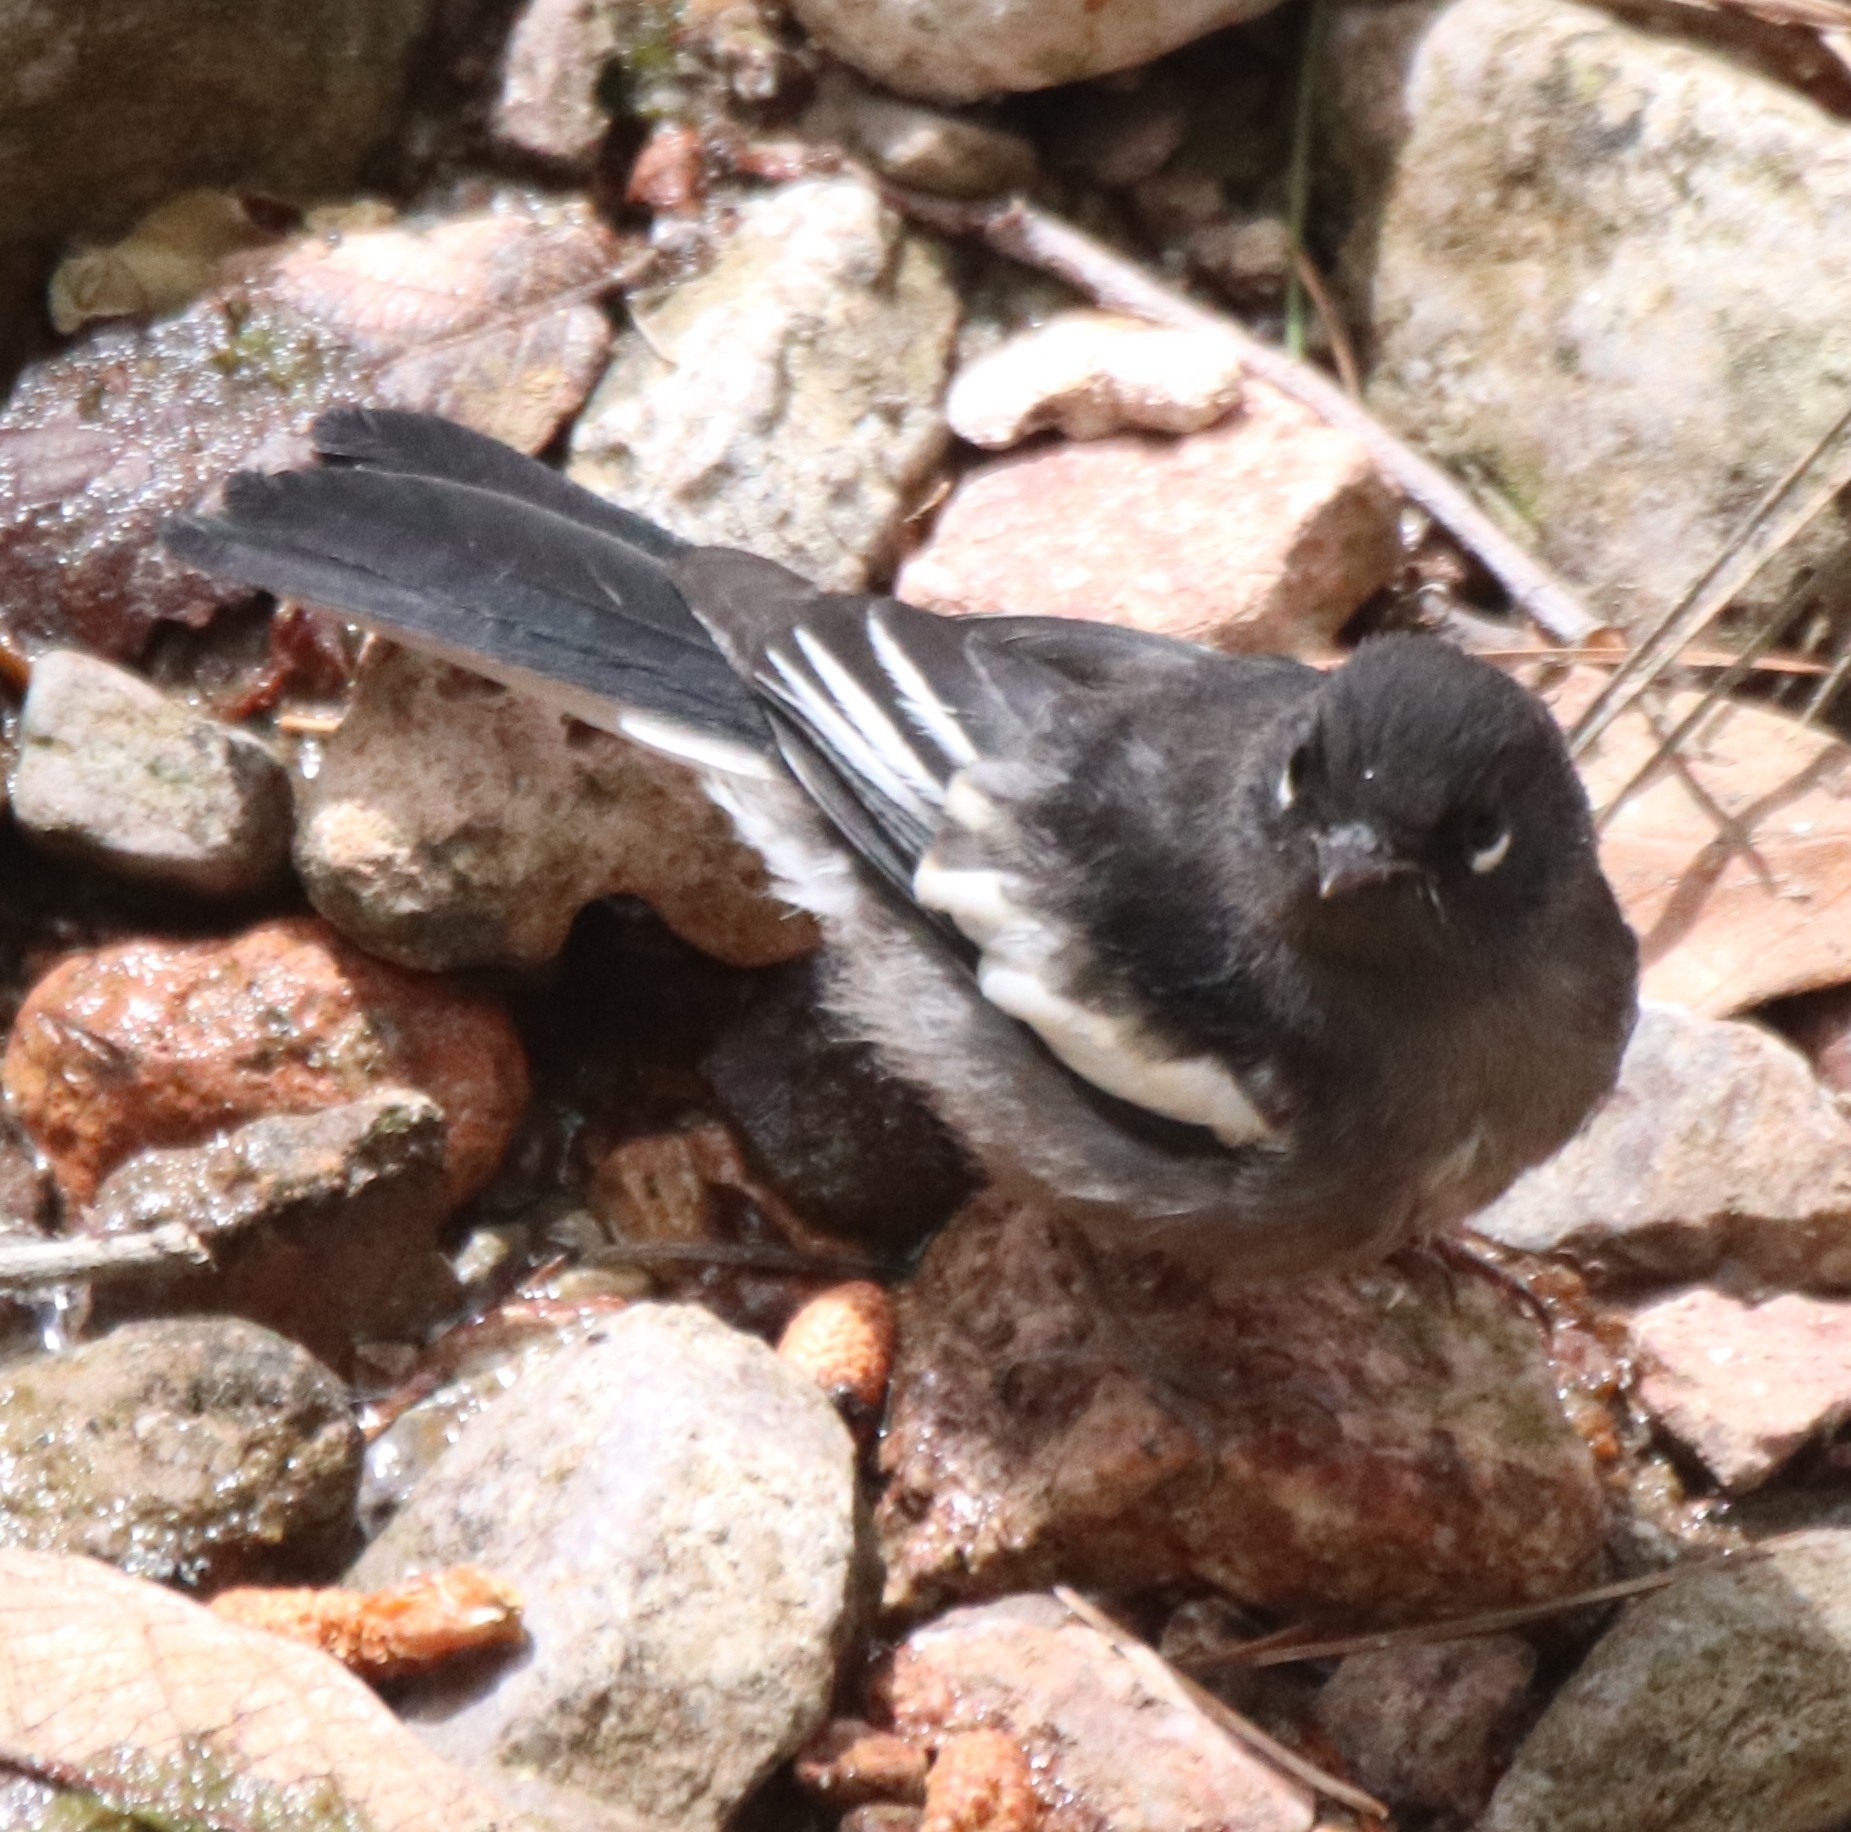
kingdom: Animalia
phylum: Chordata
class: Aves
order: Passeriformes
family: Parulidae
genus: Myioborus
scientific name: Myioborus pictus
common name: Painted whitestart
